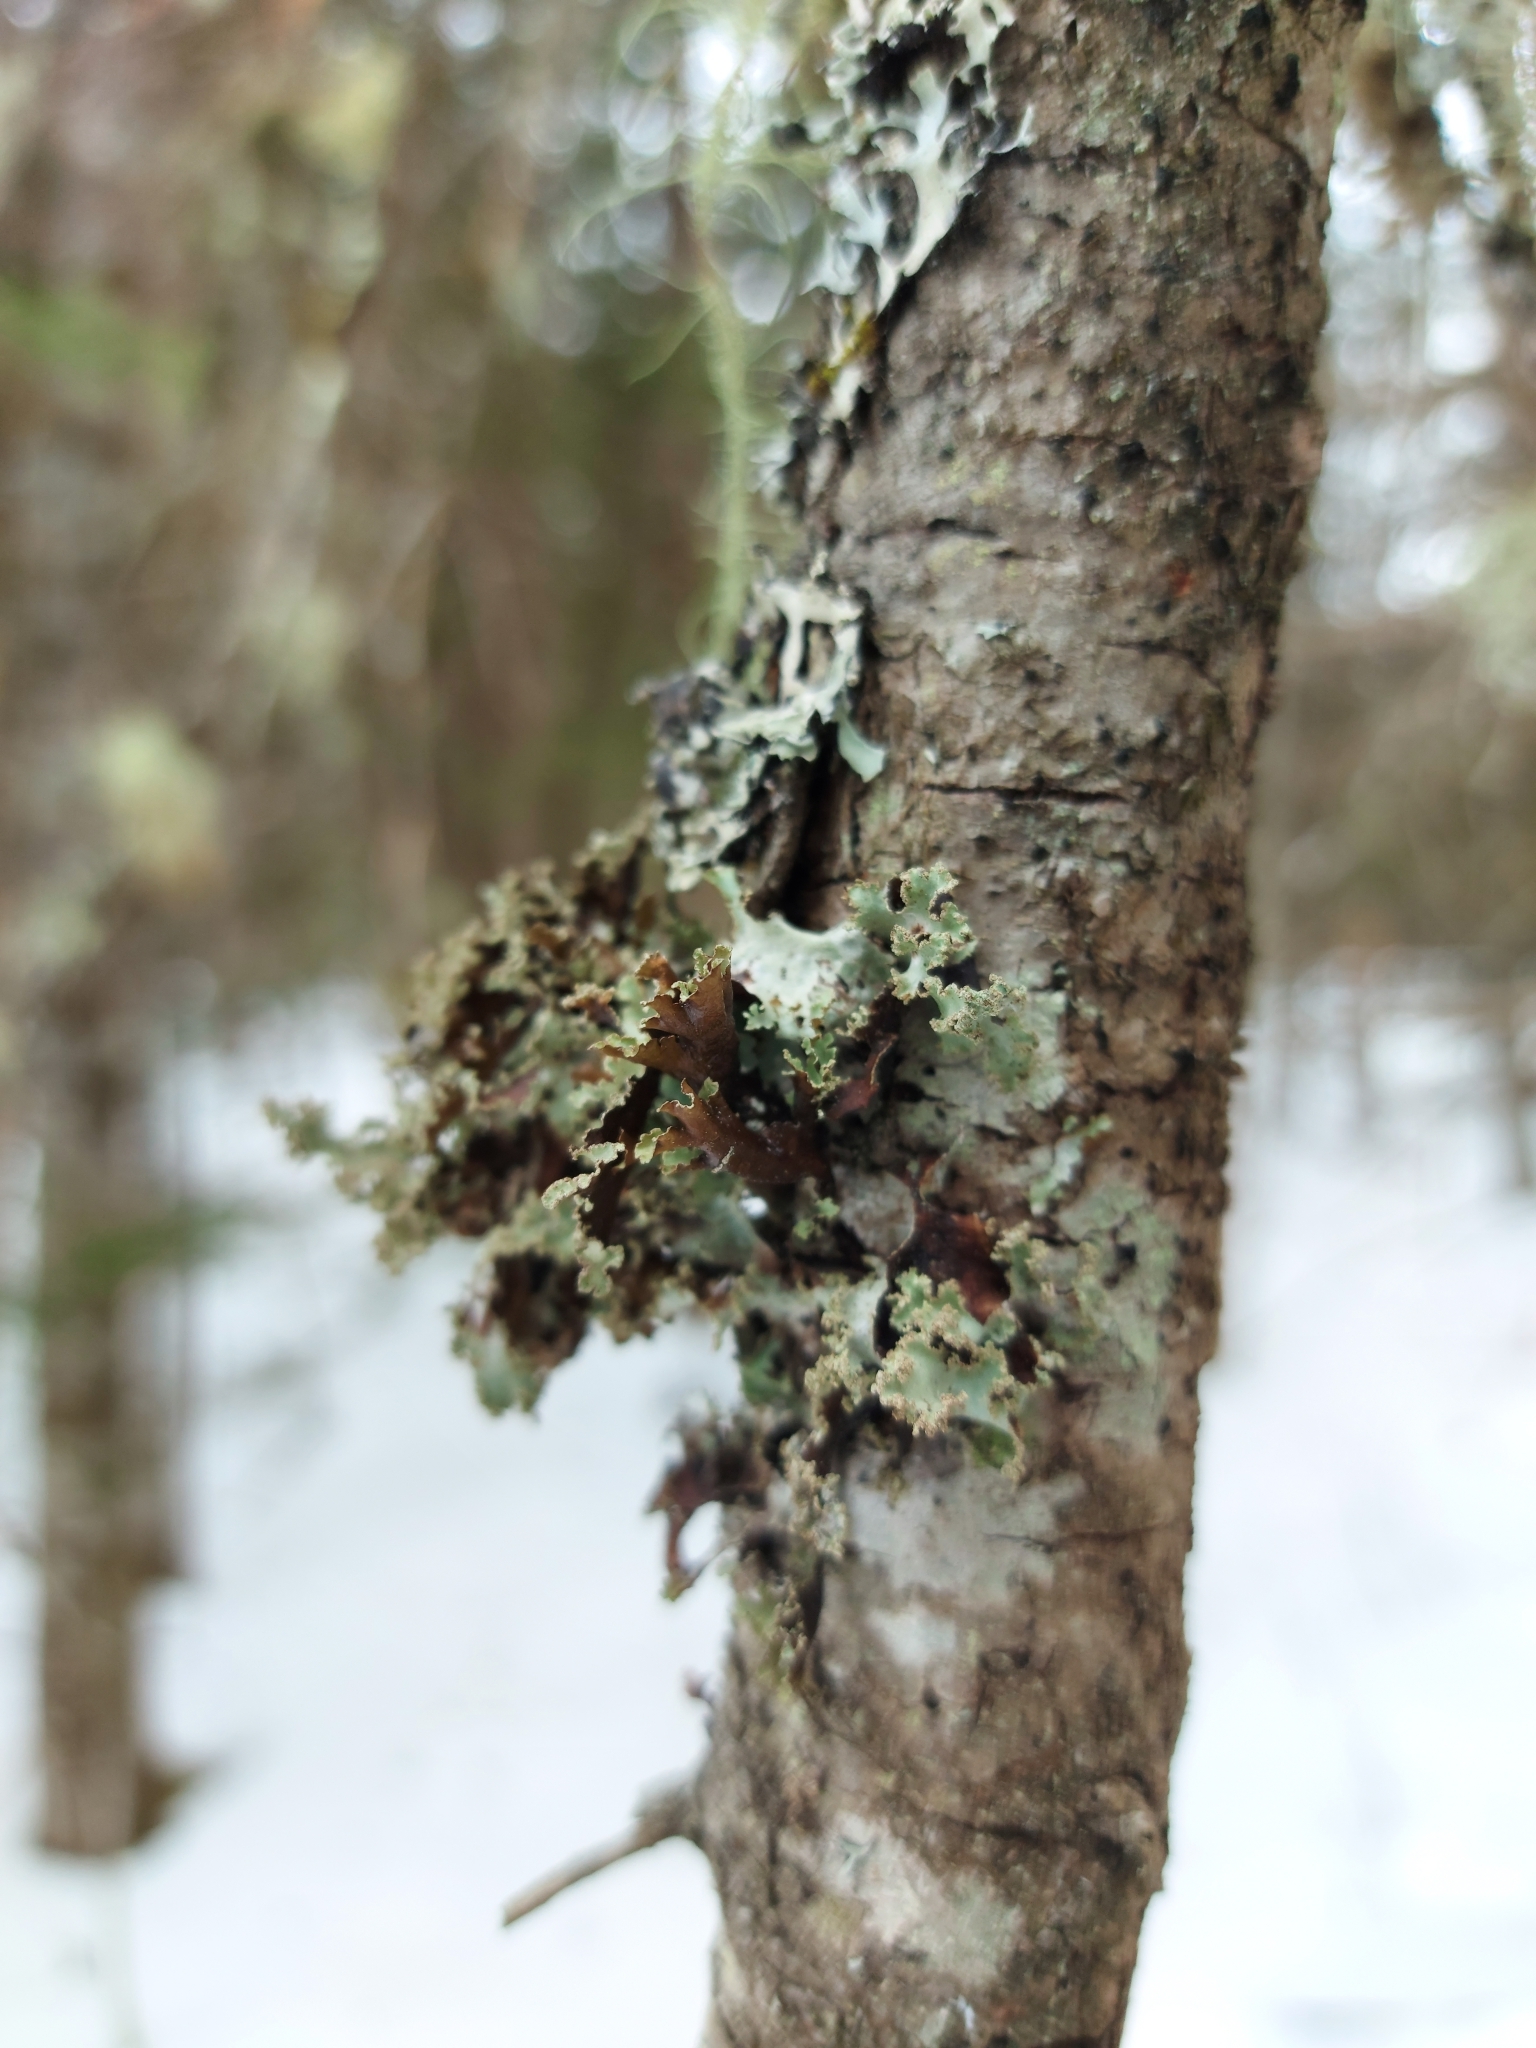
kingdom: Fungi
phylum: Ascomycota
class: Lecanoromycetes
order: Lecanorales
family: Parmeliaceae
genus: Platismatia
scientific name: Platismatia glauca
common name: Varied rag lichen
